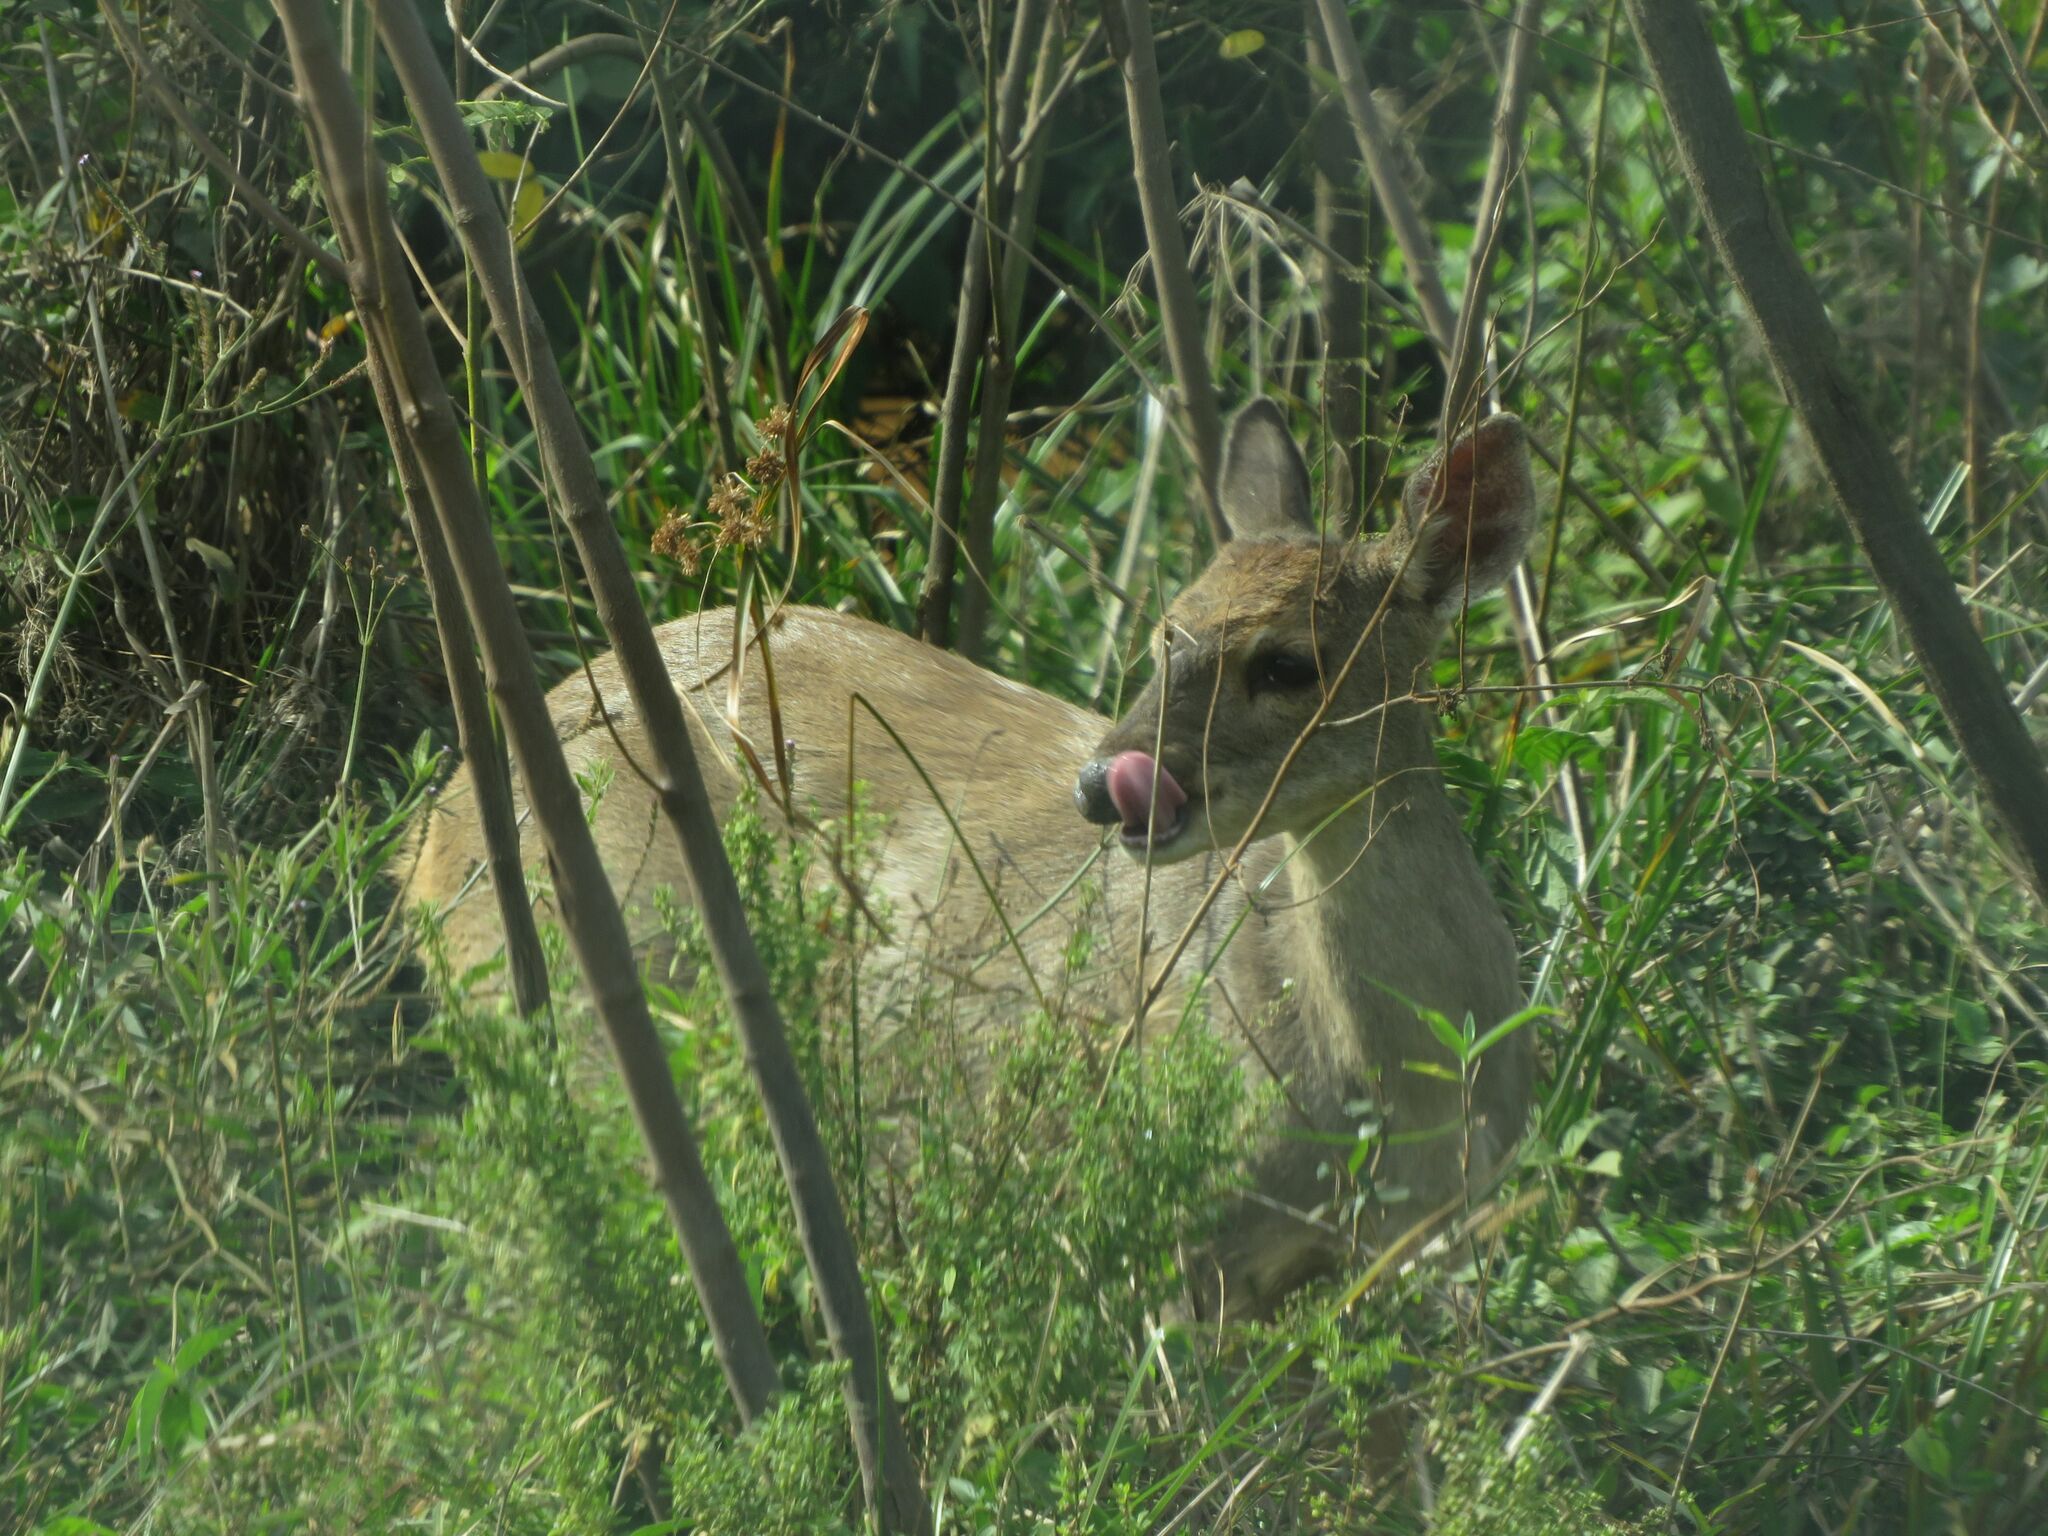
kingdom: Animalia
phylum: Chordata
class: Mammalia
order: Artiodactyla
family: Cervidae
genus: Mazama
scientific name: Mazama gouazoubira
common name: Gray brocket
